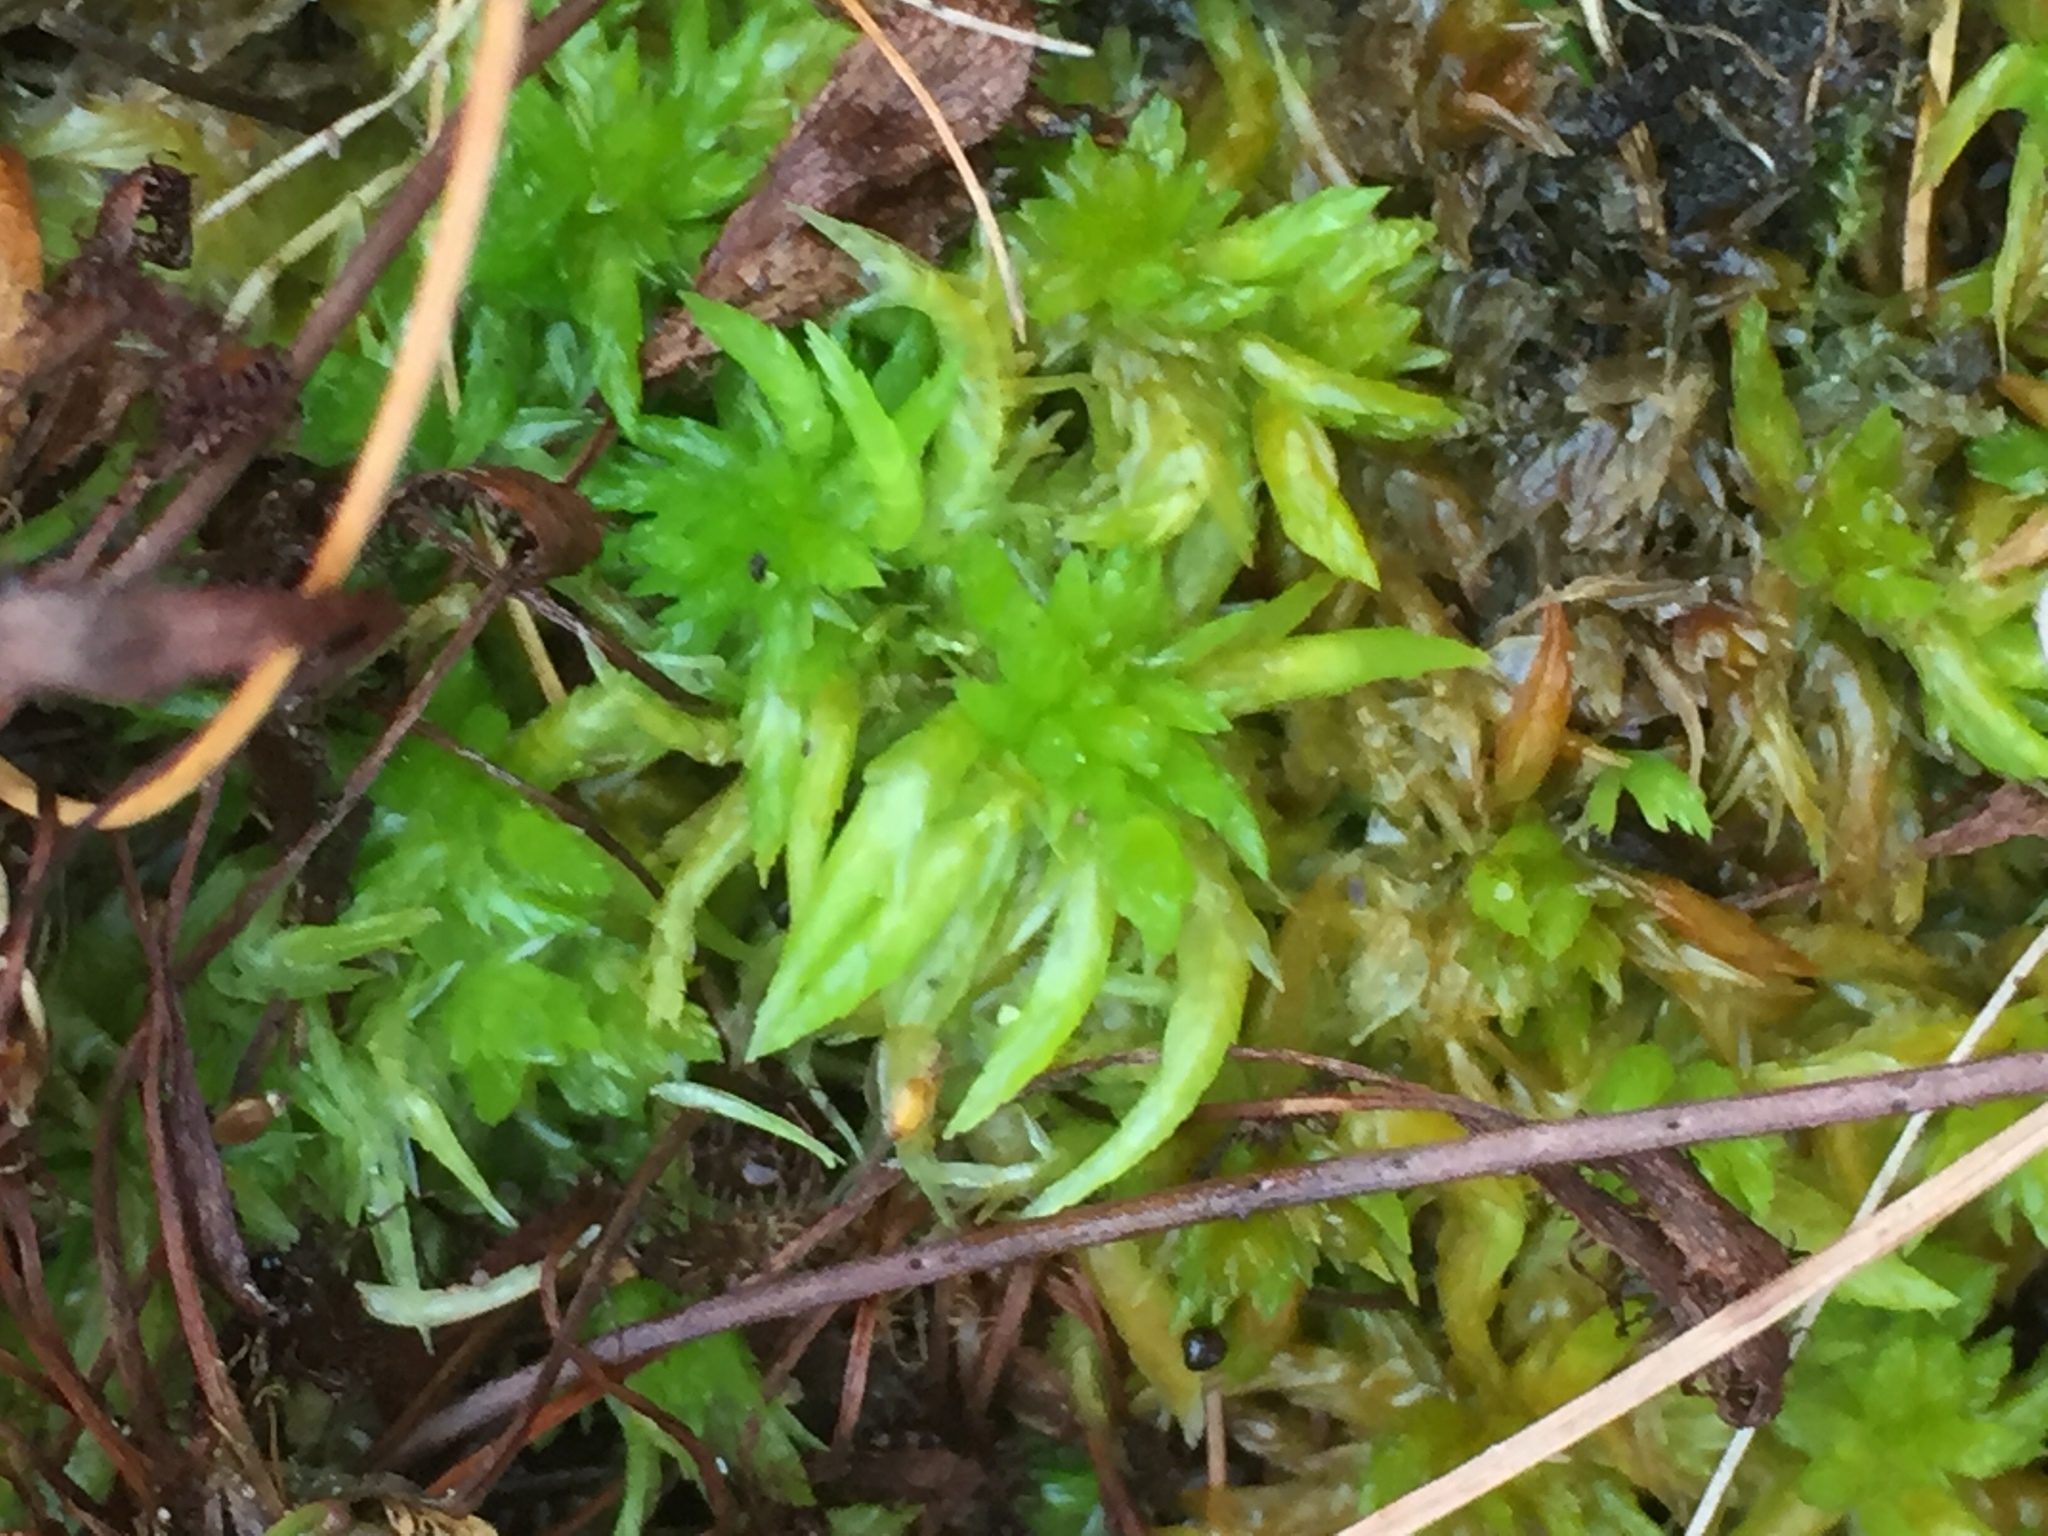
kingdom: Plantae
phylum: Bryophyta
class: Sphagnopsida
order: Sphagnales
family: Sphagnaceae
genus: Sphagnum
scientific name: Sphagnum denticulatum
